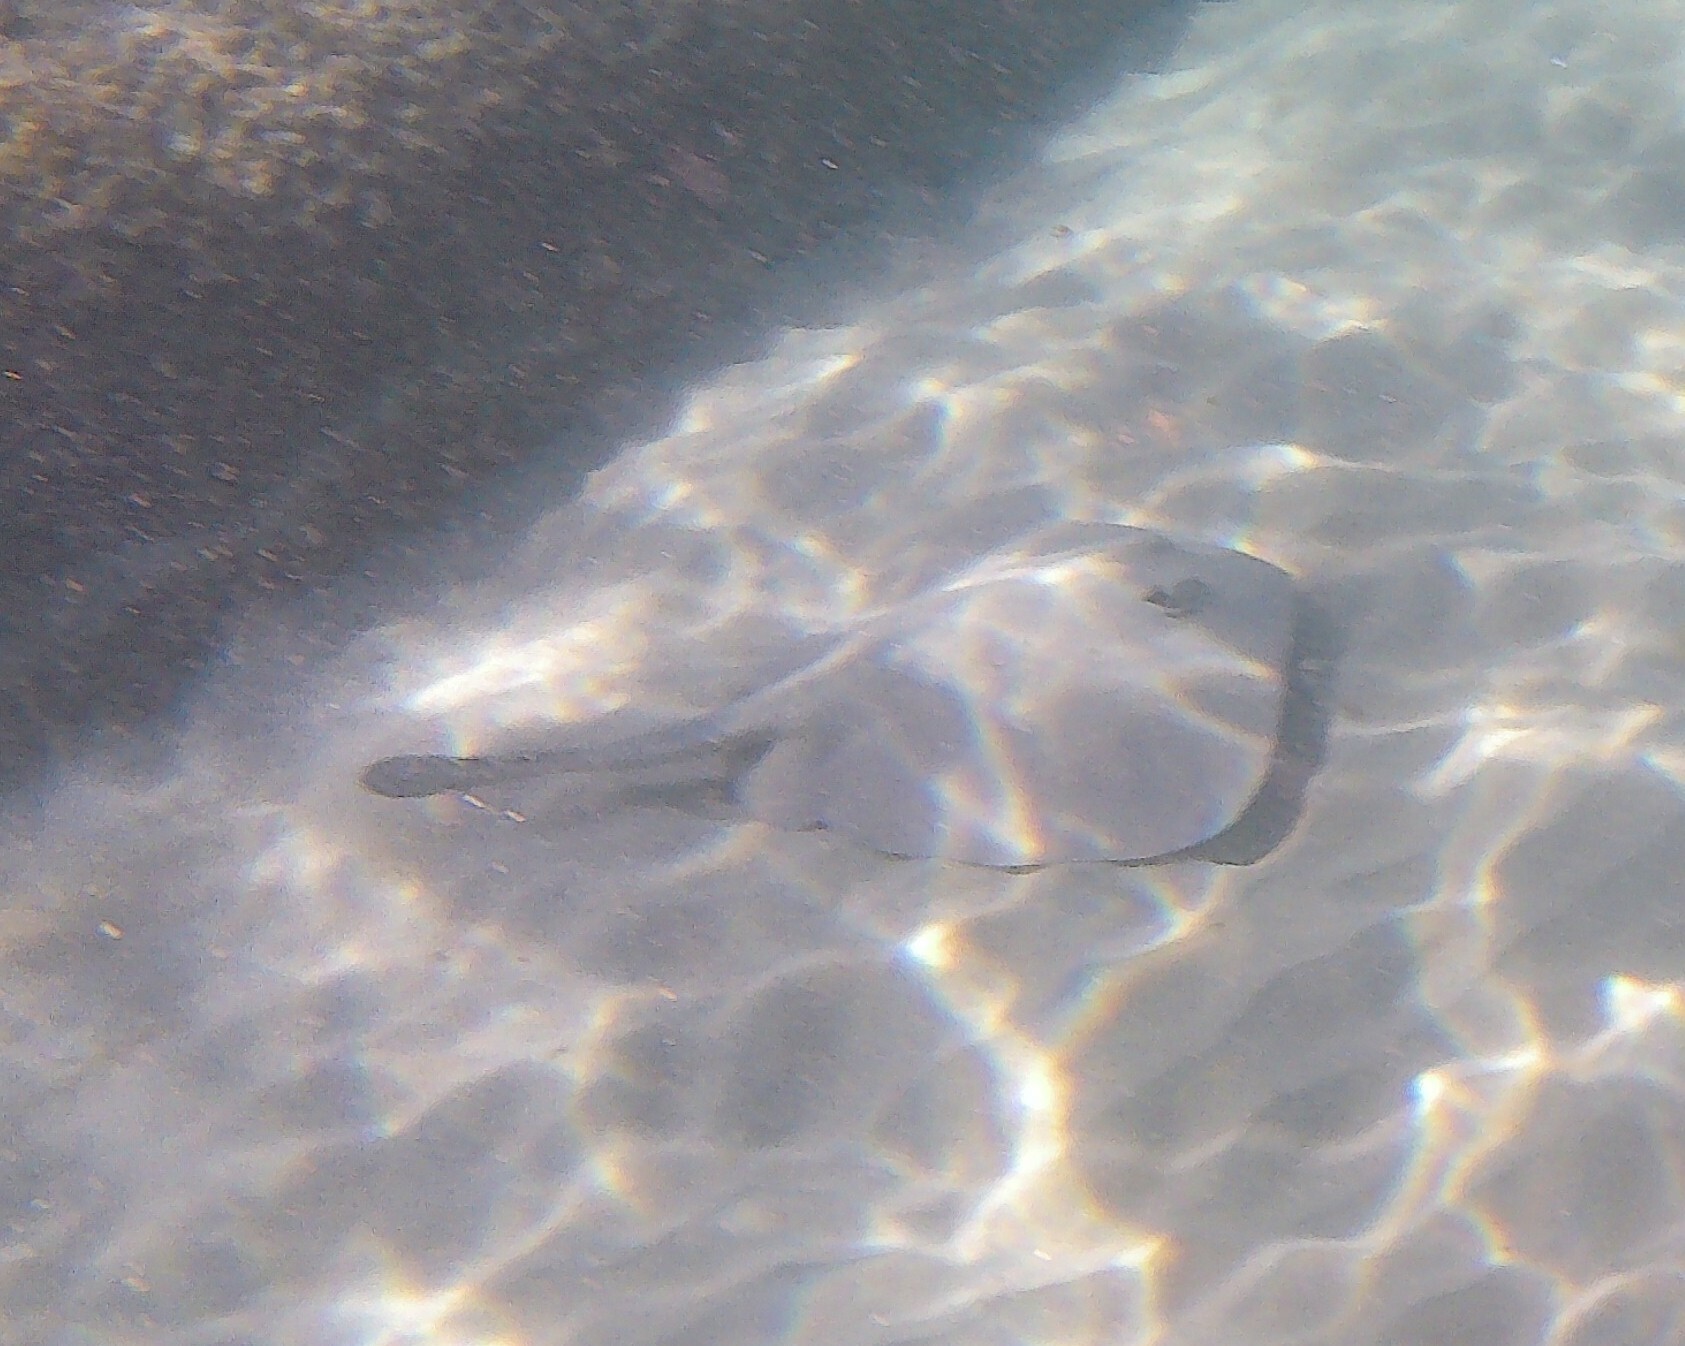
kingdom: Animalia
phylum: Chordata
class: Elasmobranchii
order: Myliobatiformes
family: Urolophidae
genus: Trygonoptera
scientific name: Trygonoptera imitata
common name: Eastern shovelnose stingaree
